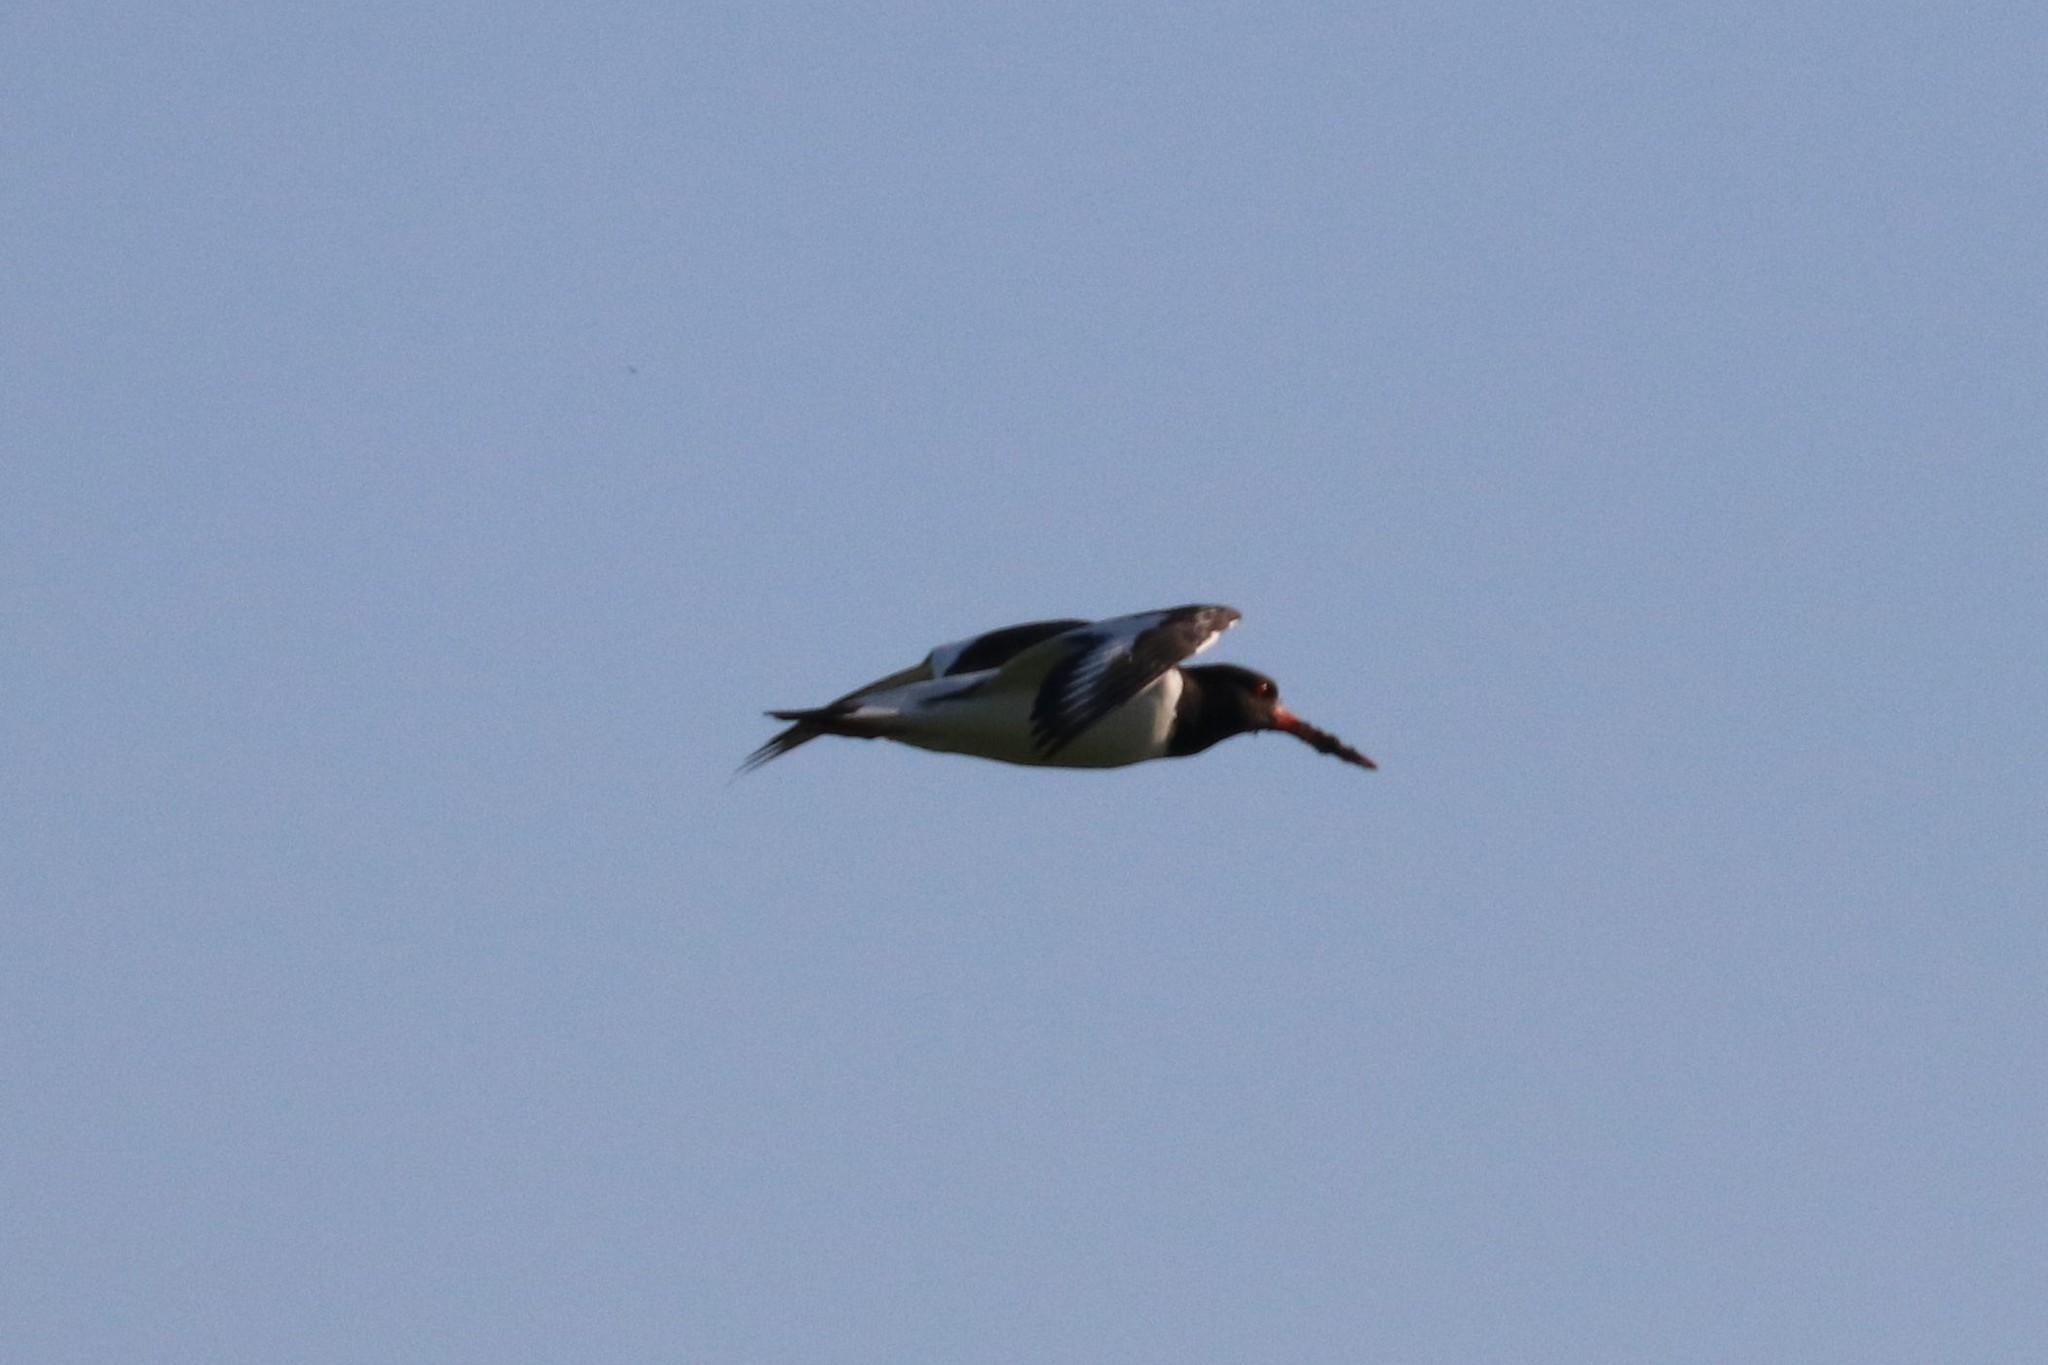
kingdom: Animalia
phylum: Chordata
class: Aves
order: Charadriiformes
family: Haematopodidae
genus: Haematopus
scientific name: Haematopus ostralegus
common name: Eurasian oystercatcher
